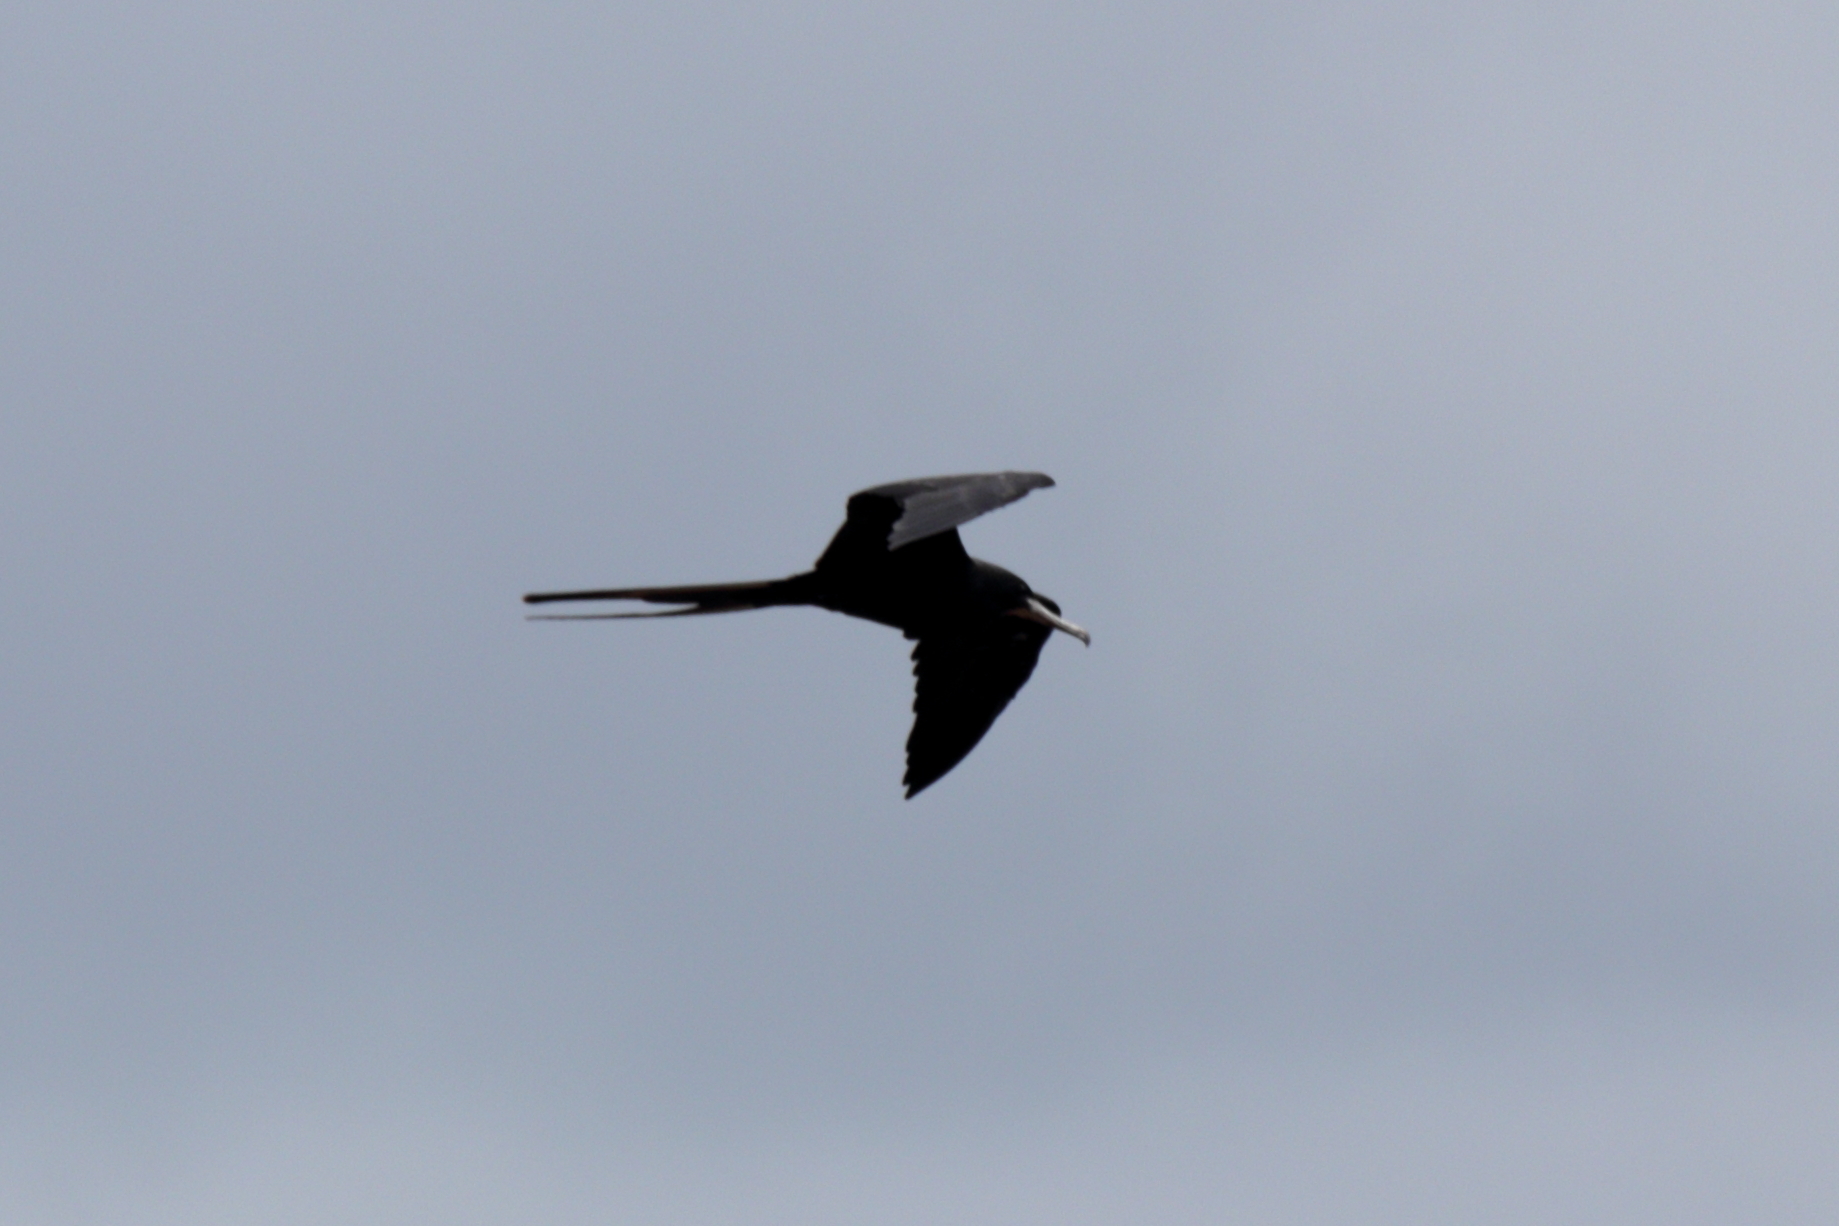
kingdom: Animalia
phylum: Chordata
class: Aves
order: Suliformes
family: Fregatidae
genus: Fregata
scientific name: Fregata magnificens
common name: Magnificent frigatebird
